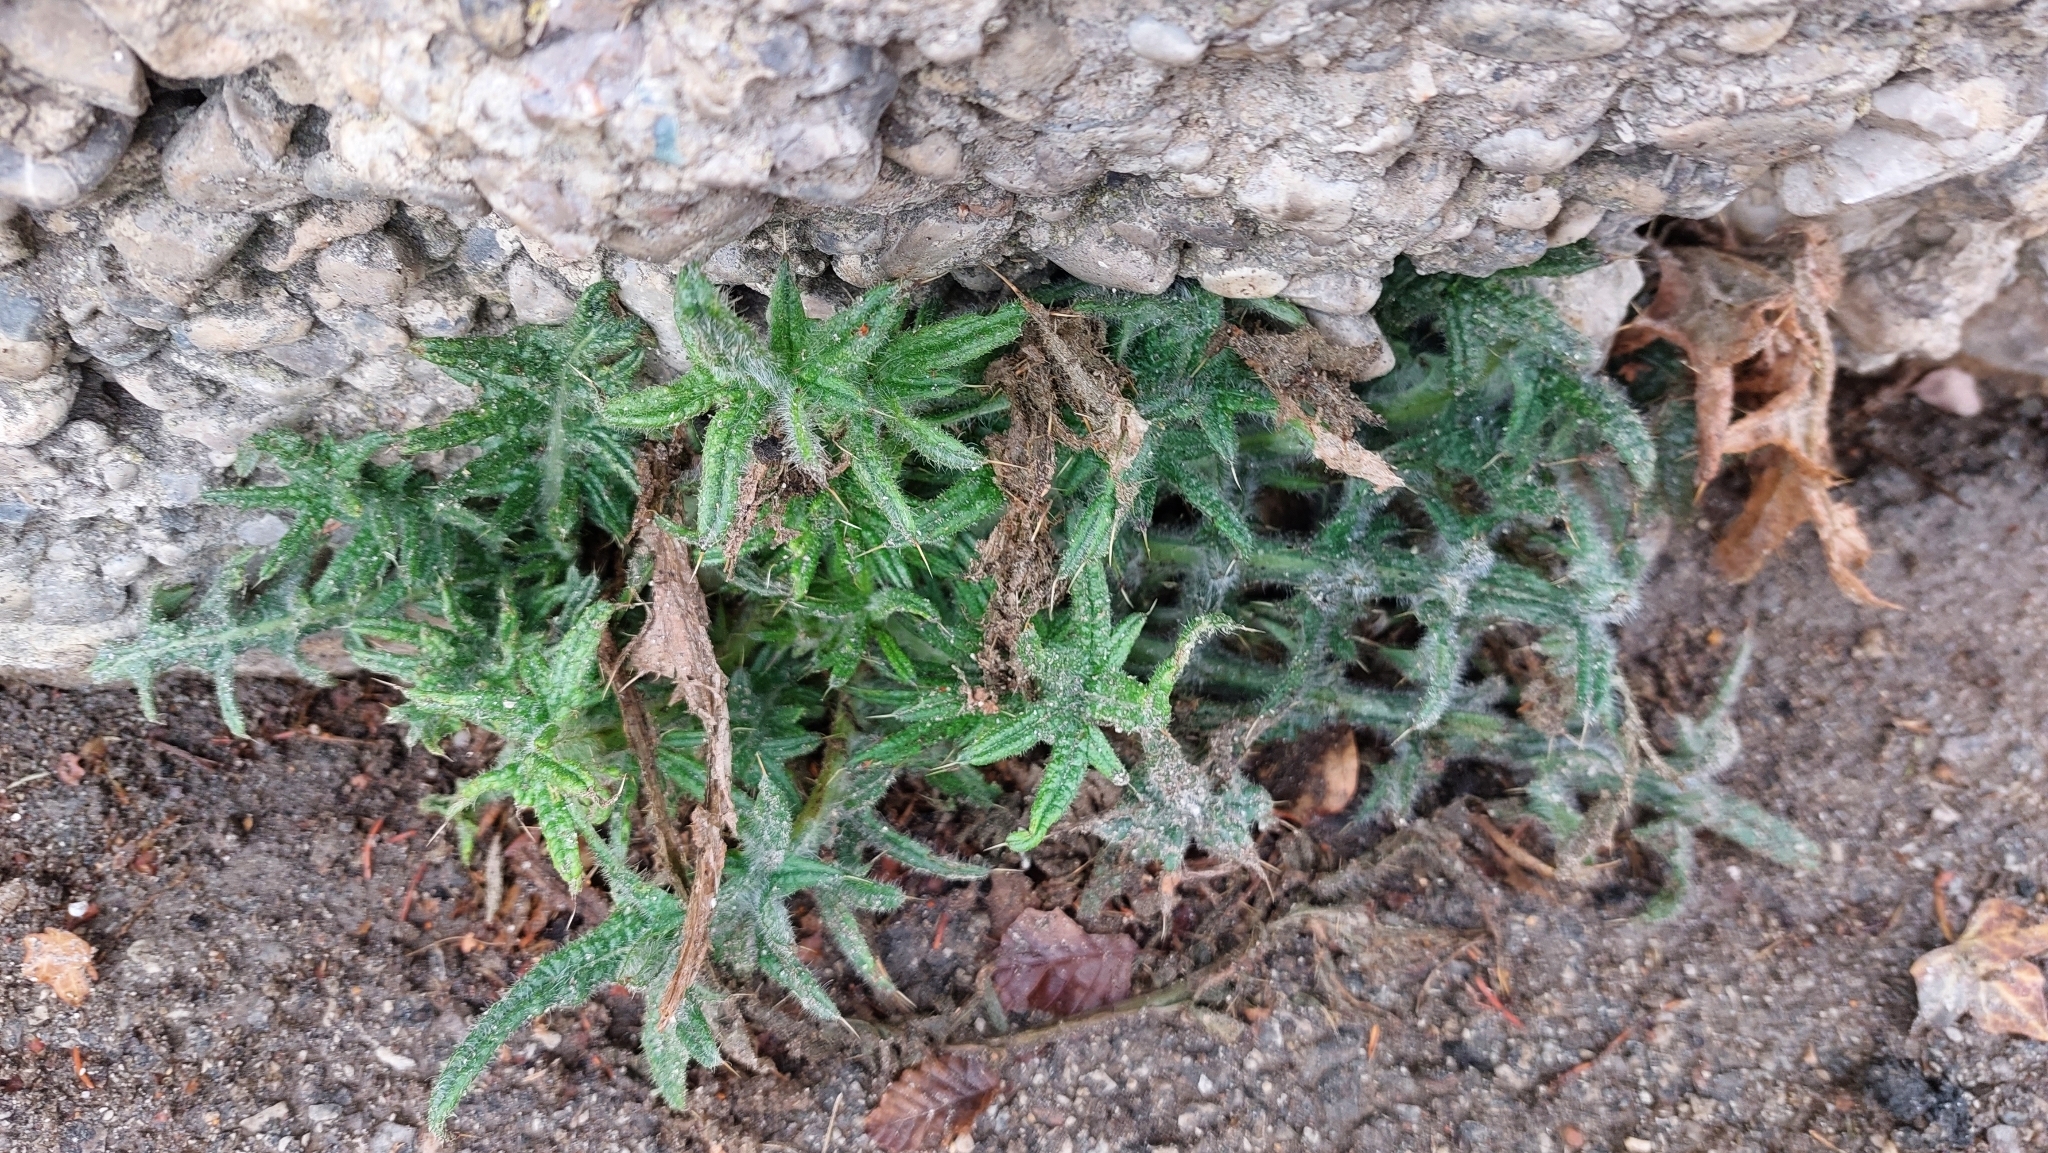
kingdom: Plantae
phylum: Tracheophyta
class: Magnoliopsida
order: Asterales
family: Asteraceae
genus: Cirsium
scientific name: Cirsium vulgare
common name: Bull thistle
